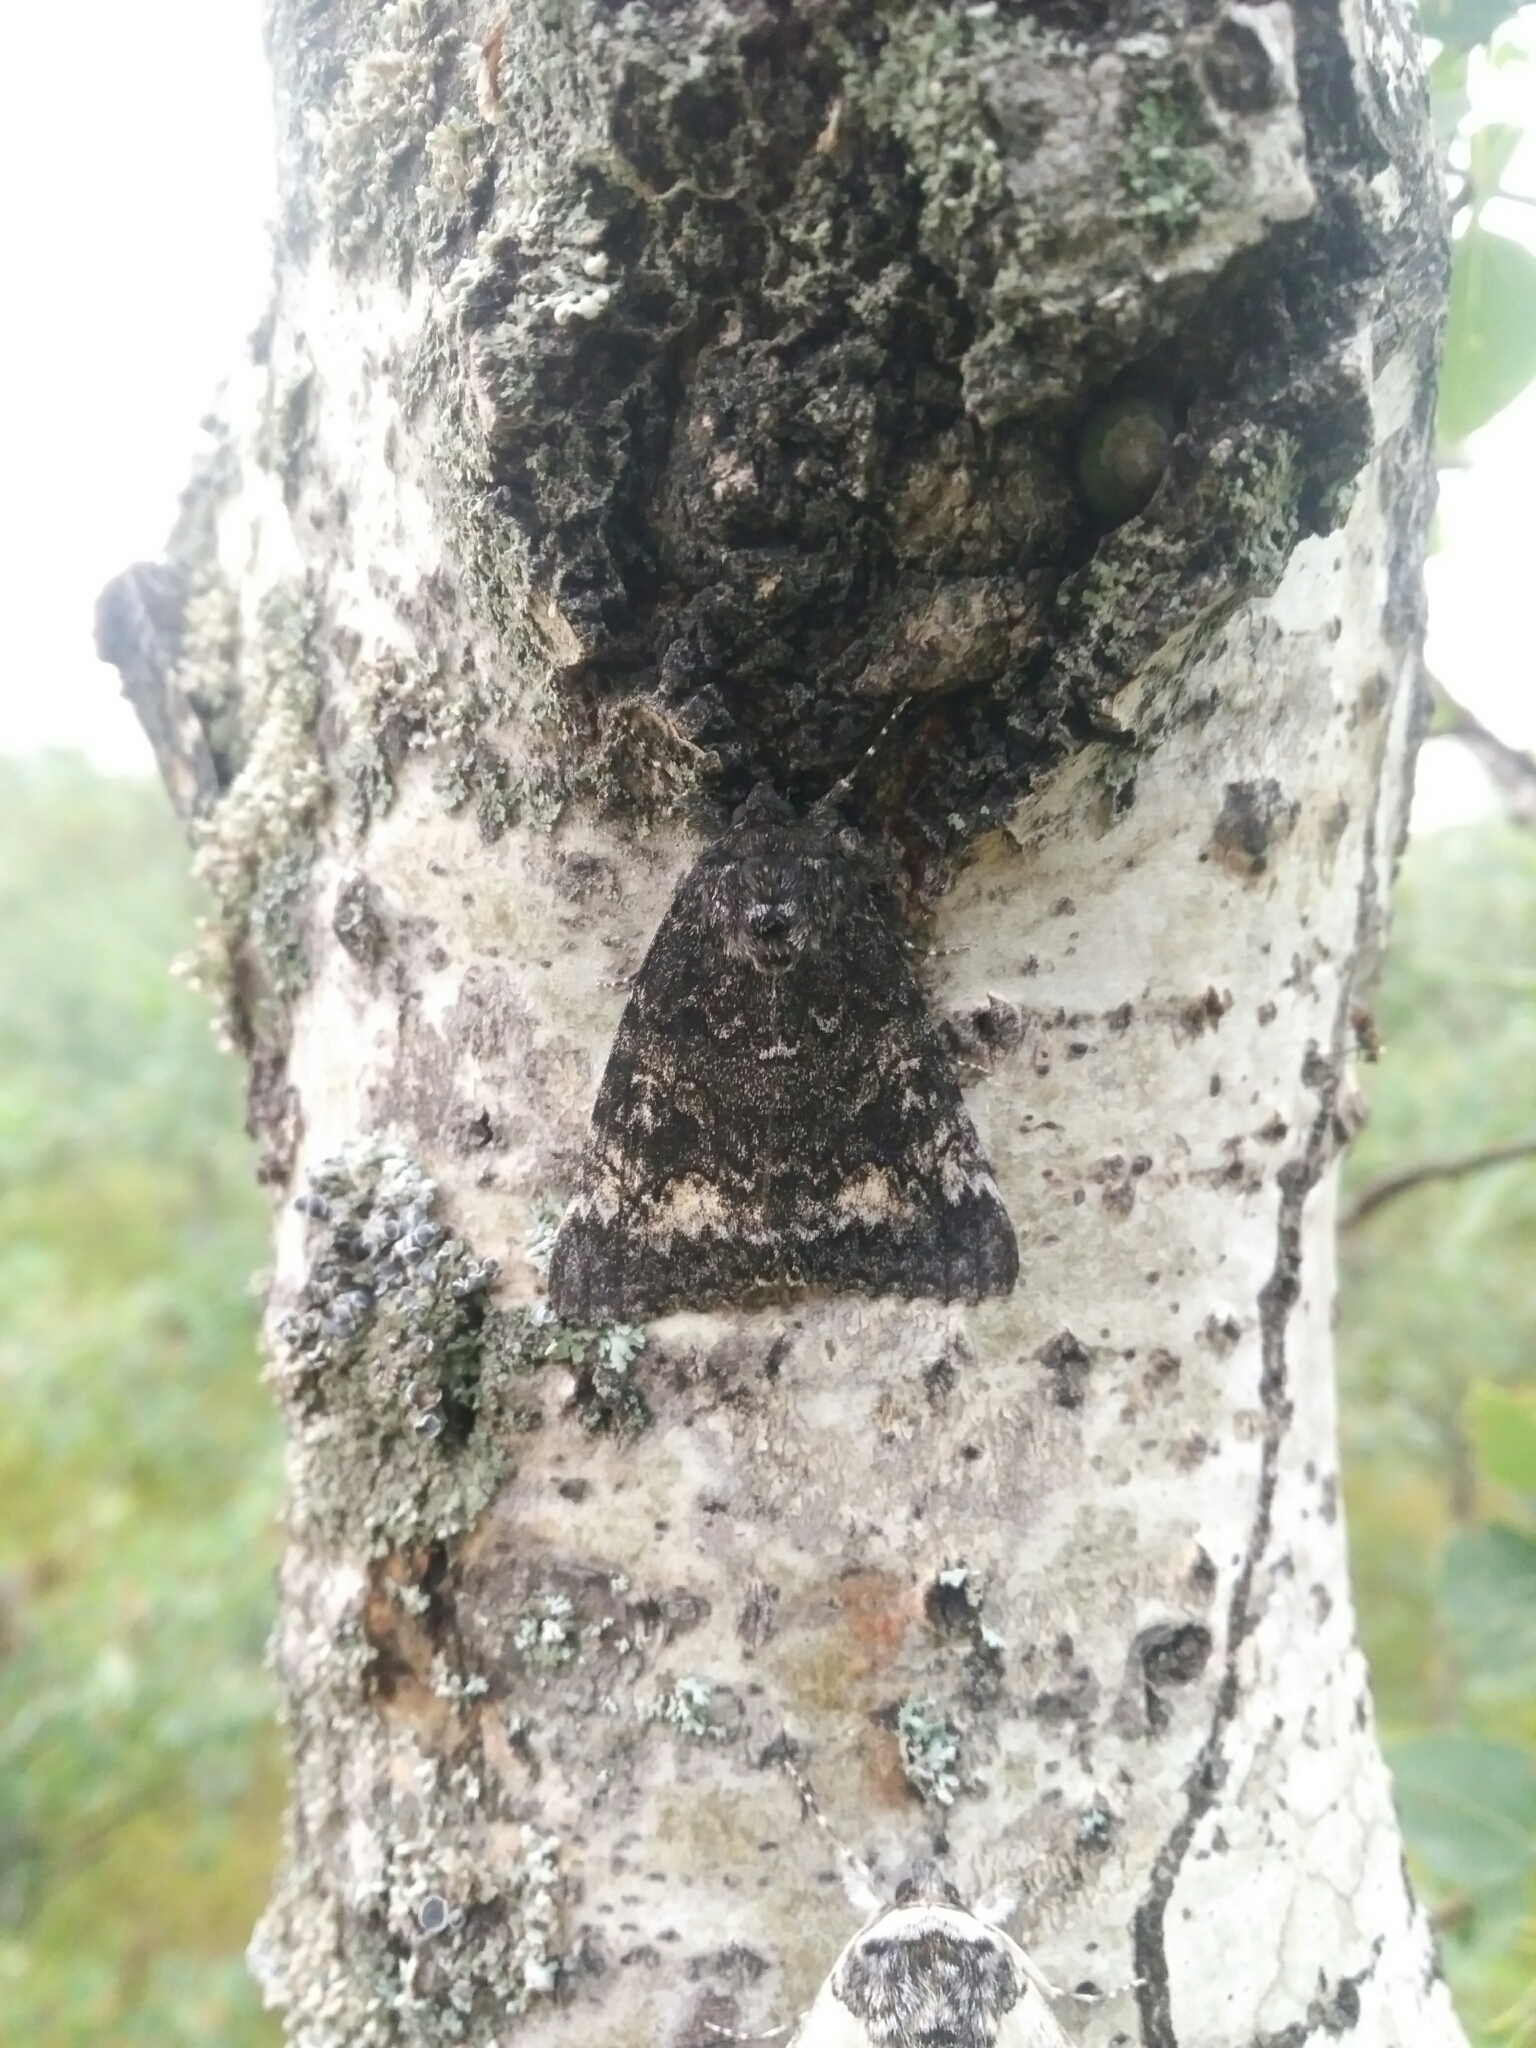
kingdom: Animalia
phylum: Arthropoda
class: Insecta
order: Lepidoptera
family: Erebidae
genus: Catocala
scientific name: Catocala briseis
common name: Briseis underwing
